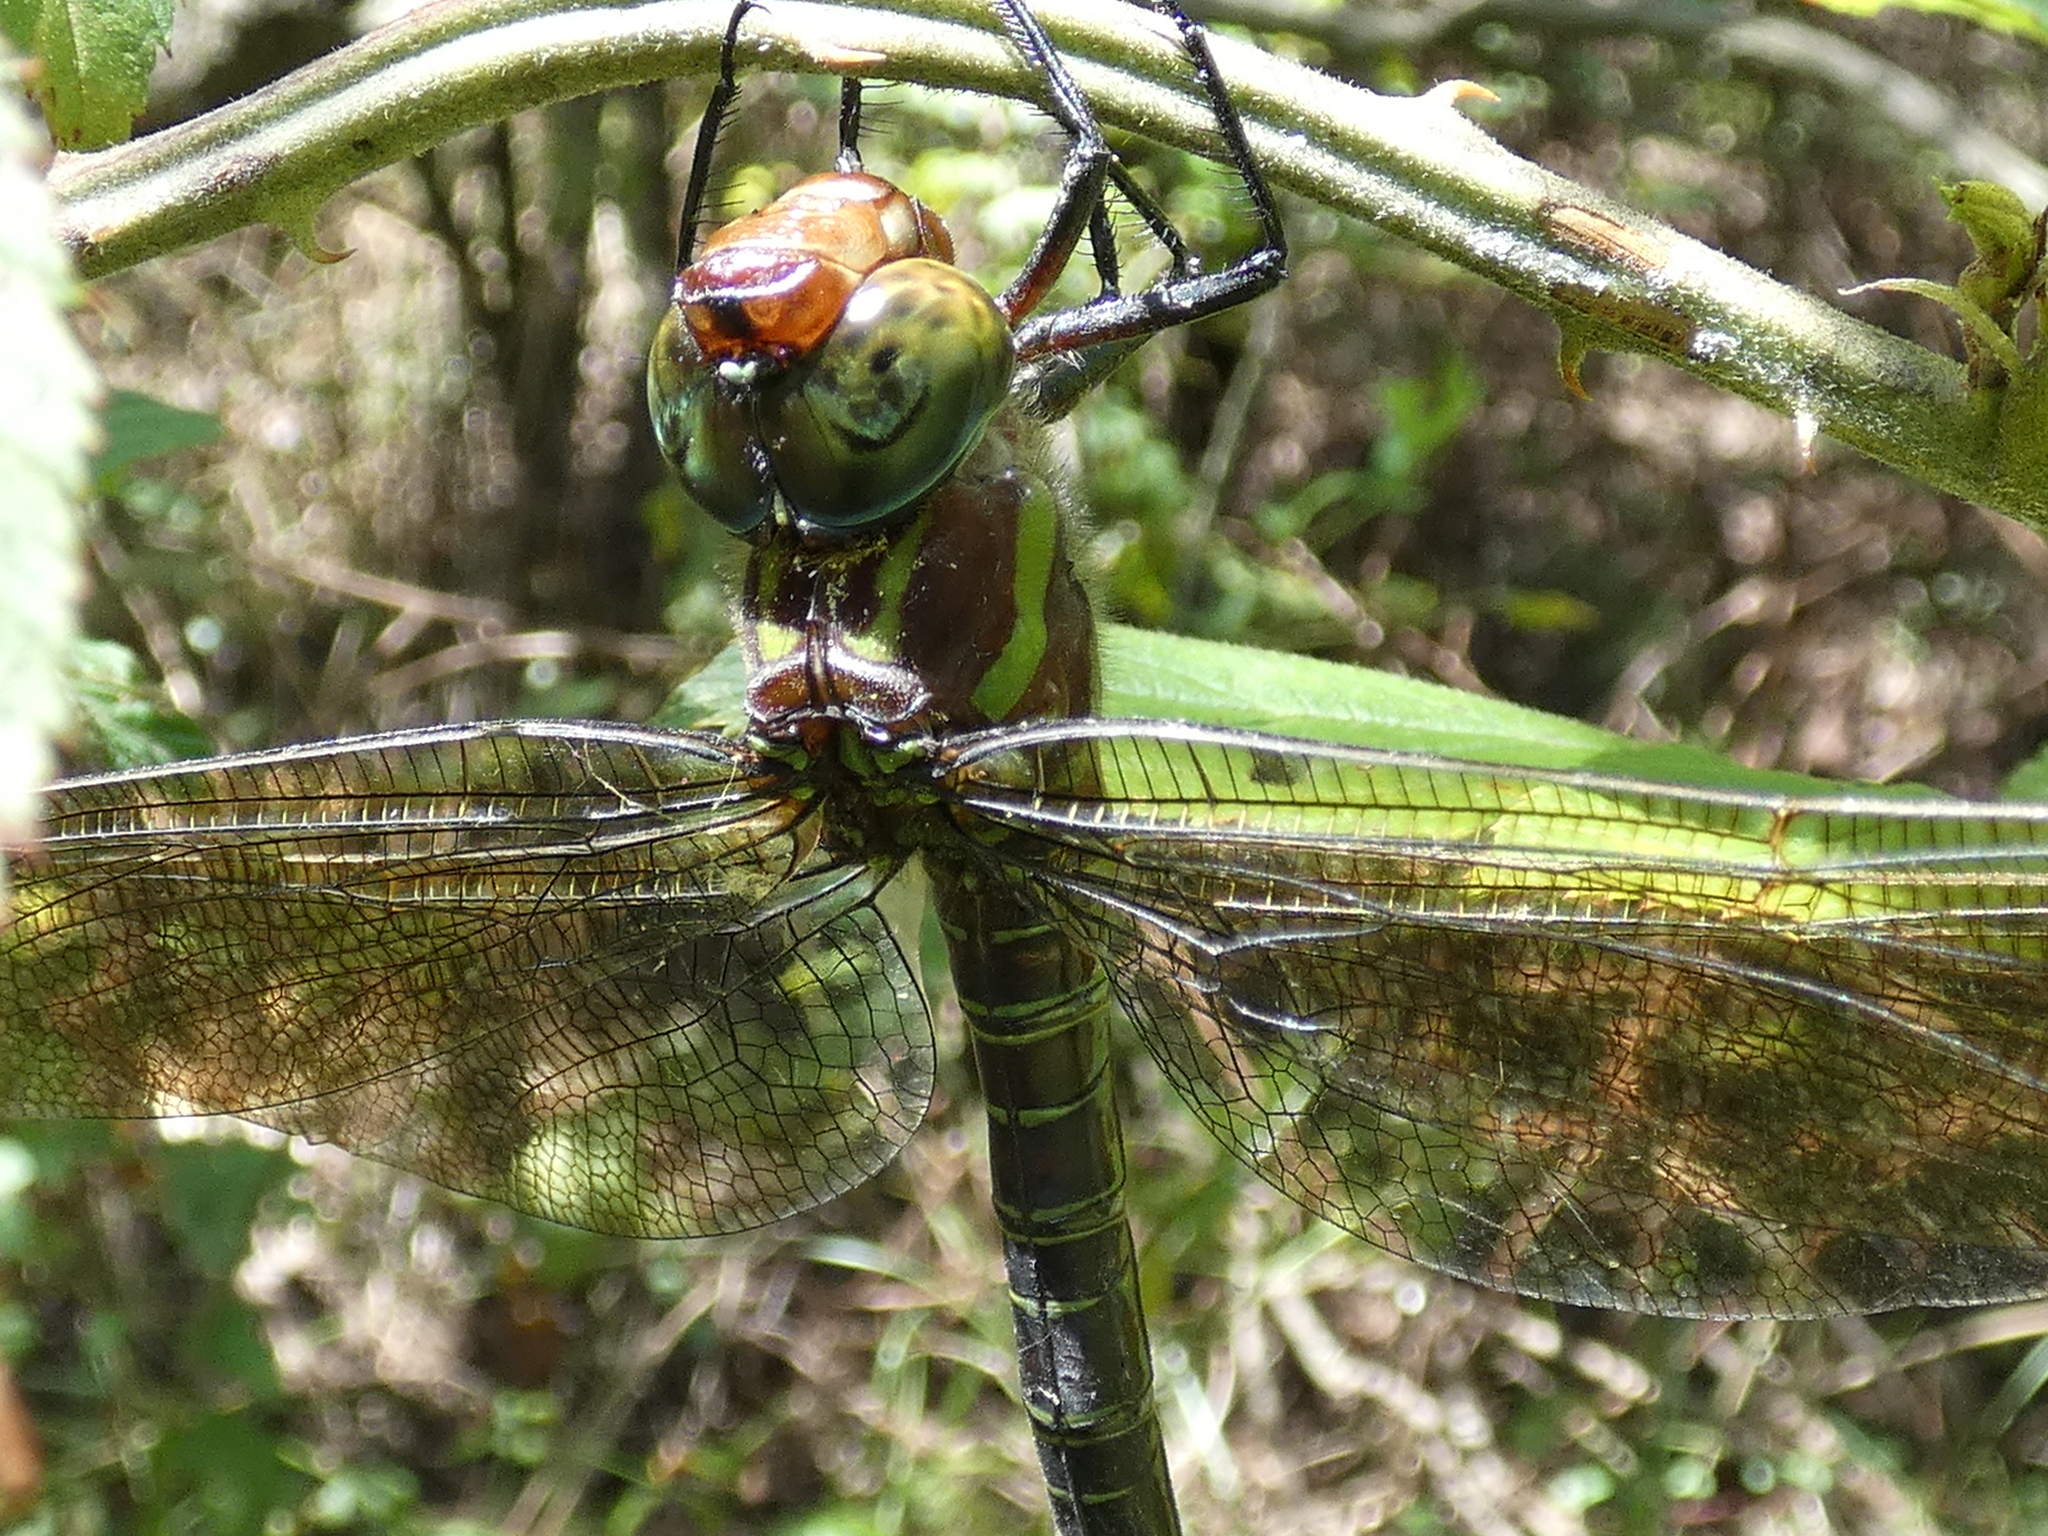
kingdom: Animalia
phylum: Arthropoda
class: Insecta
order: Odonata
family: Aeshnidae
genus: Epiaeschna
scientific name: Epiaeschna heros
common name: Swamp darner
